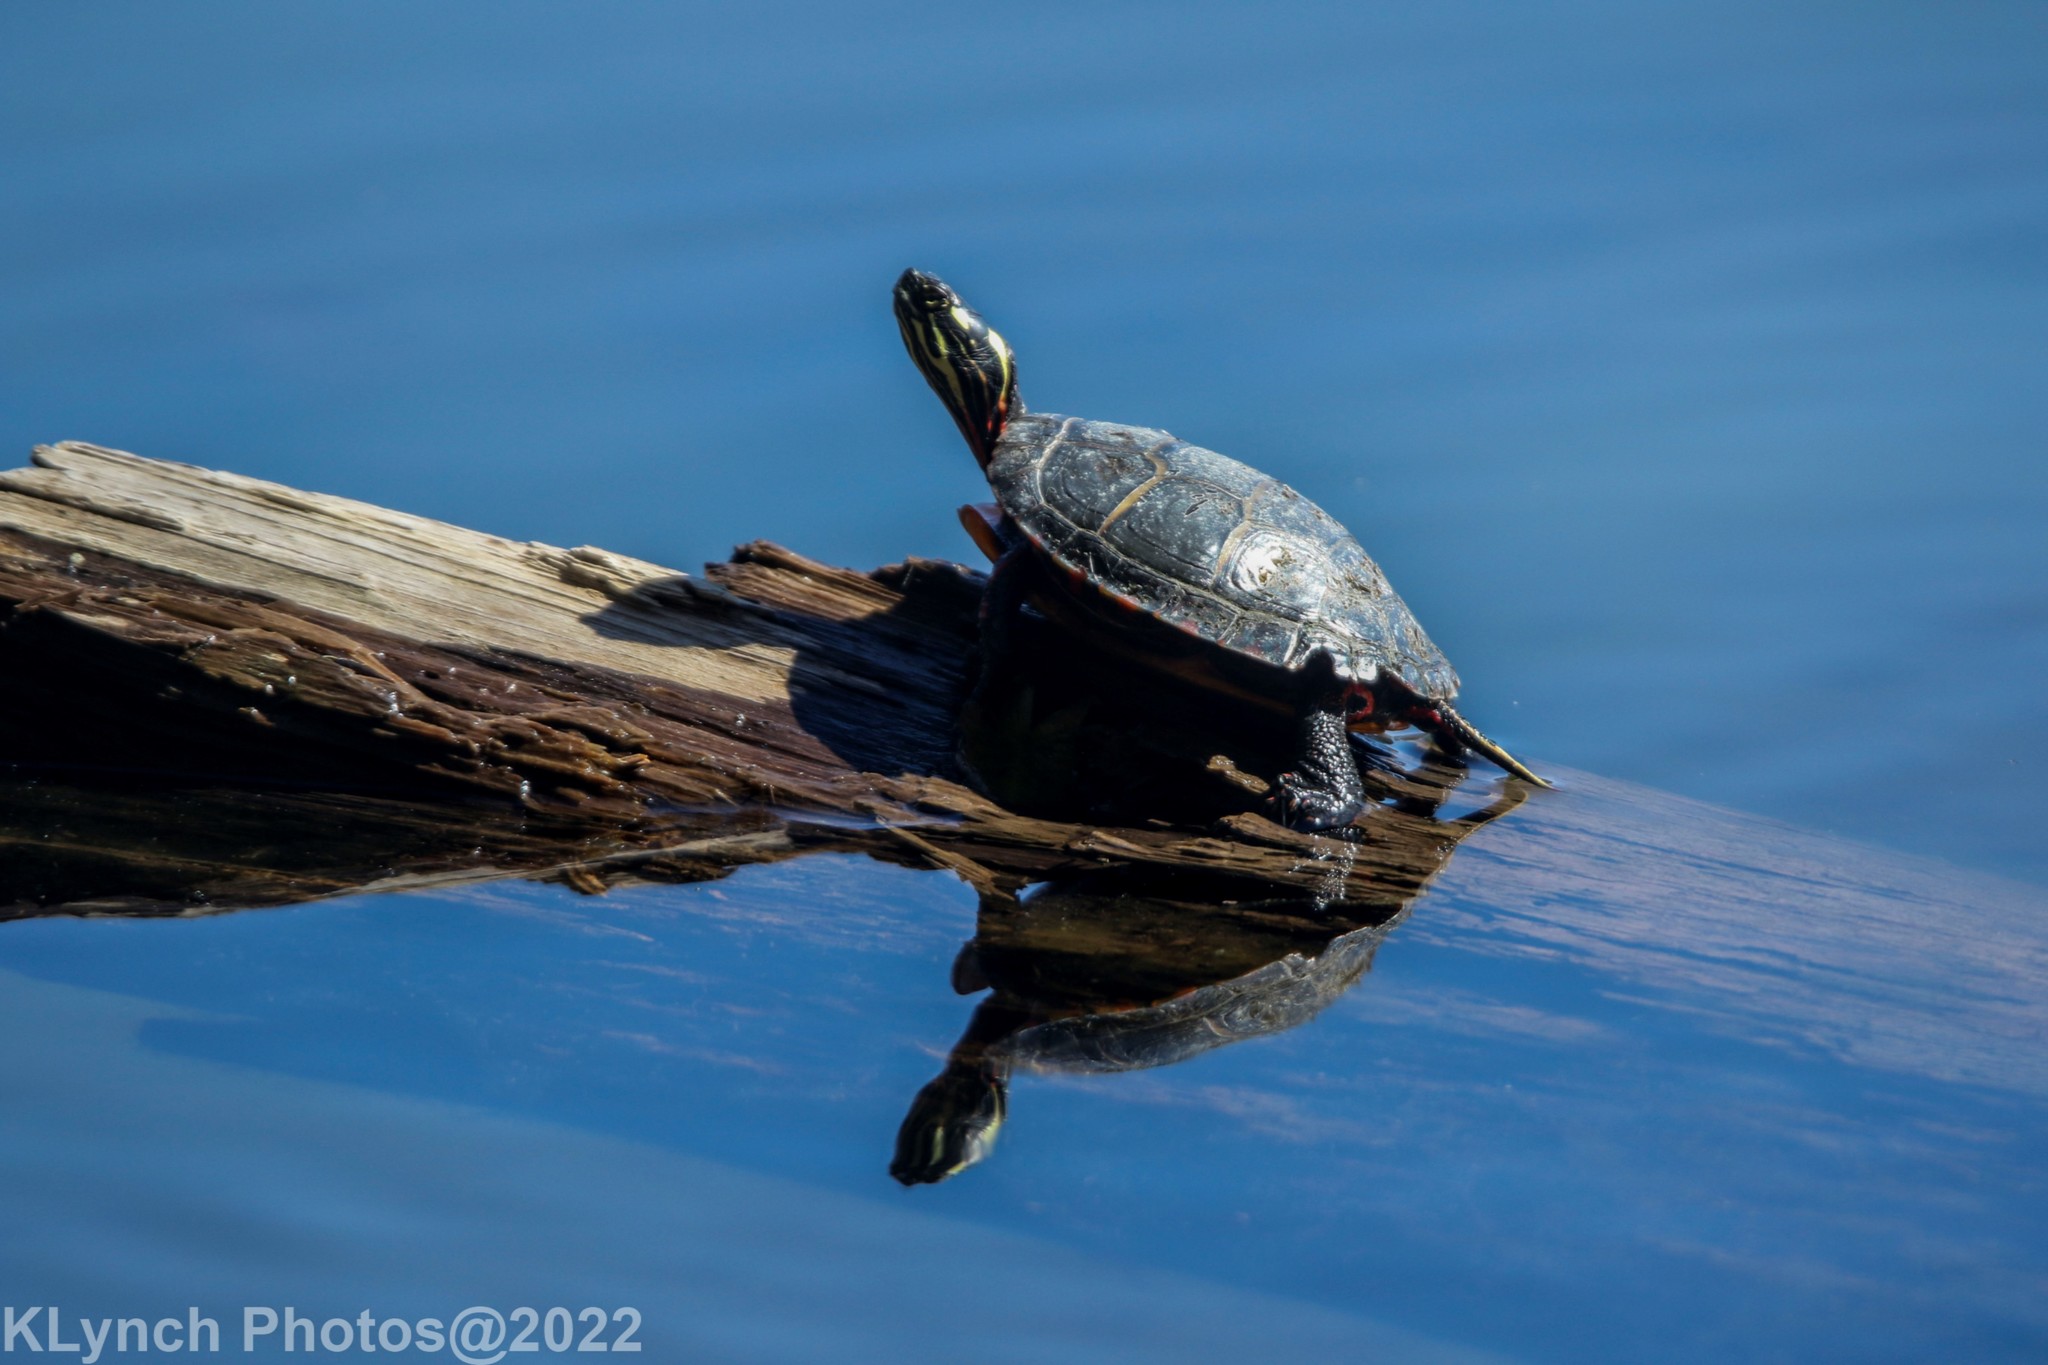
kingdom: Animalia
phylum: Chordata
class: Testudines
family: Emydidae
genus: Chrysemys
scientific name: Chrysemys picta
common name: Painted turtle
